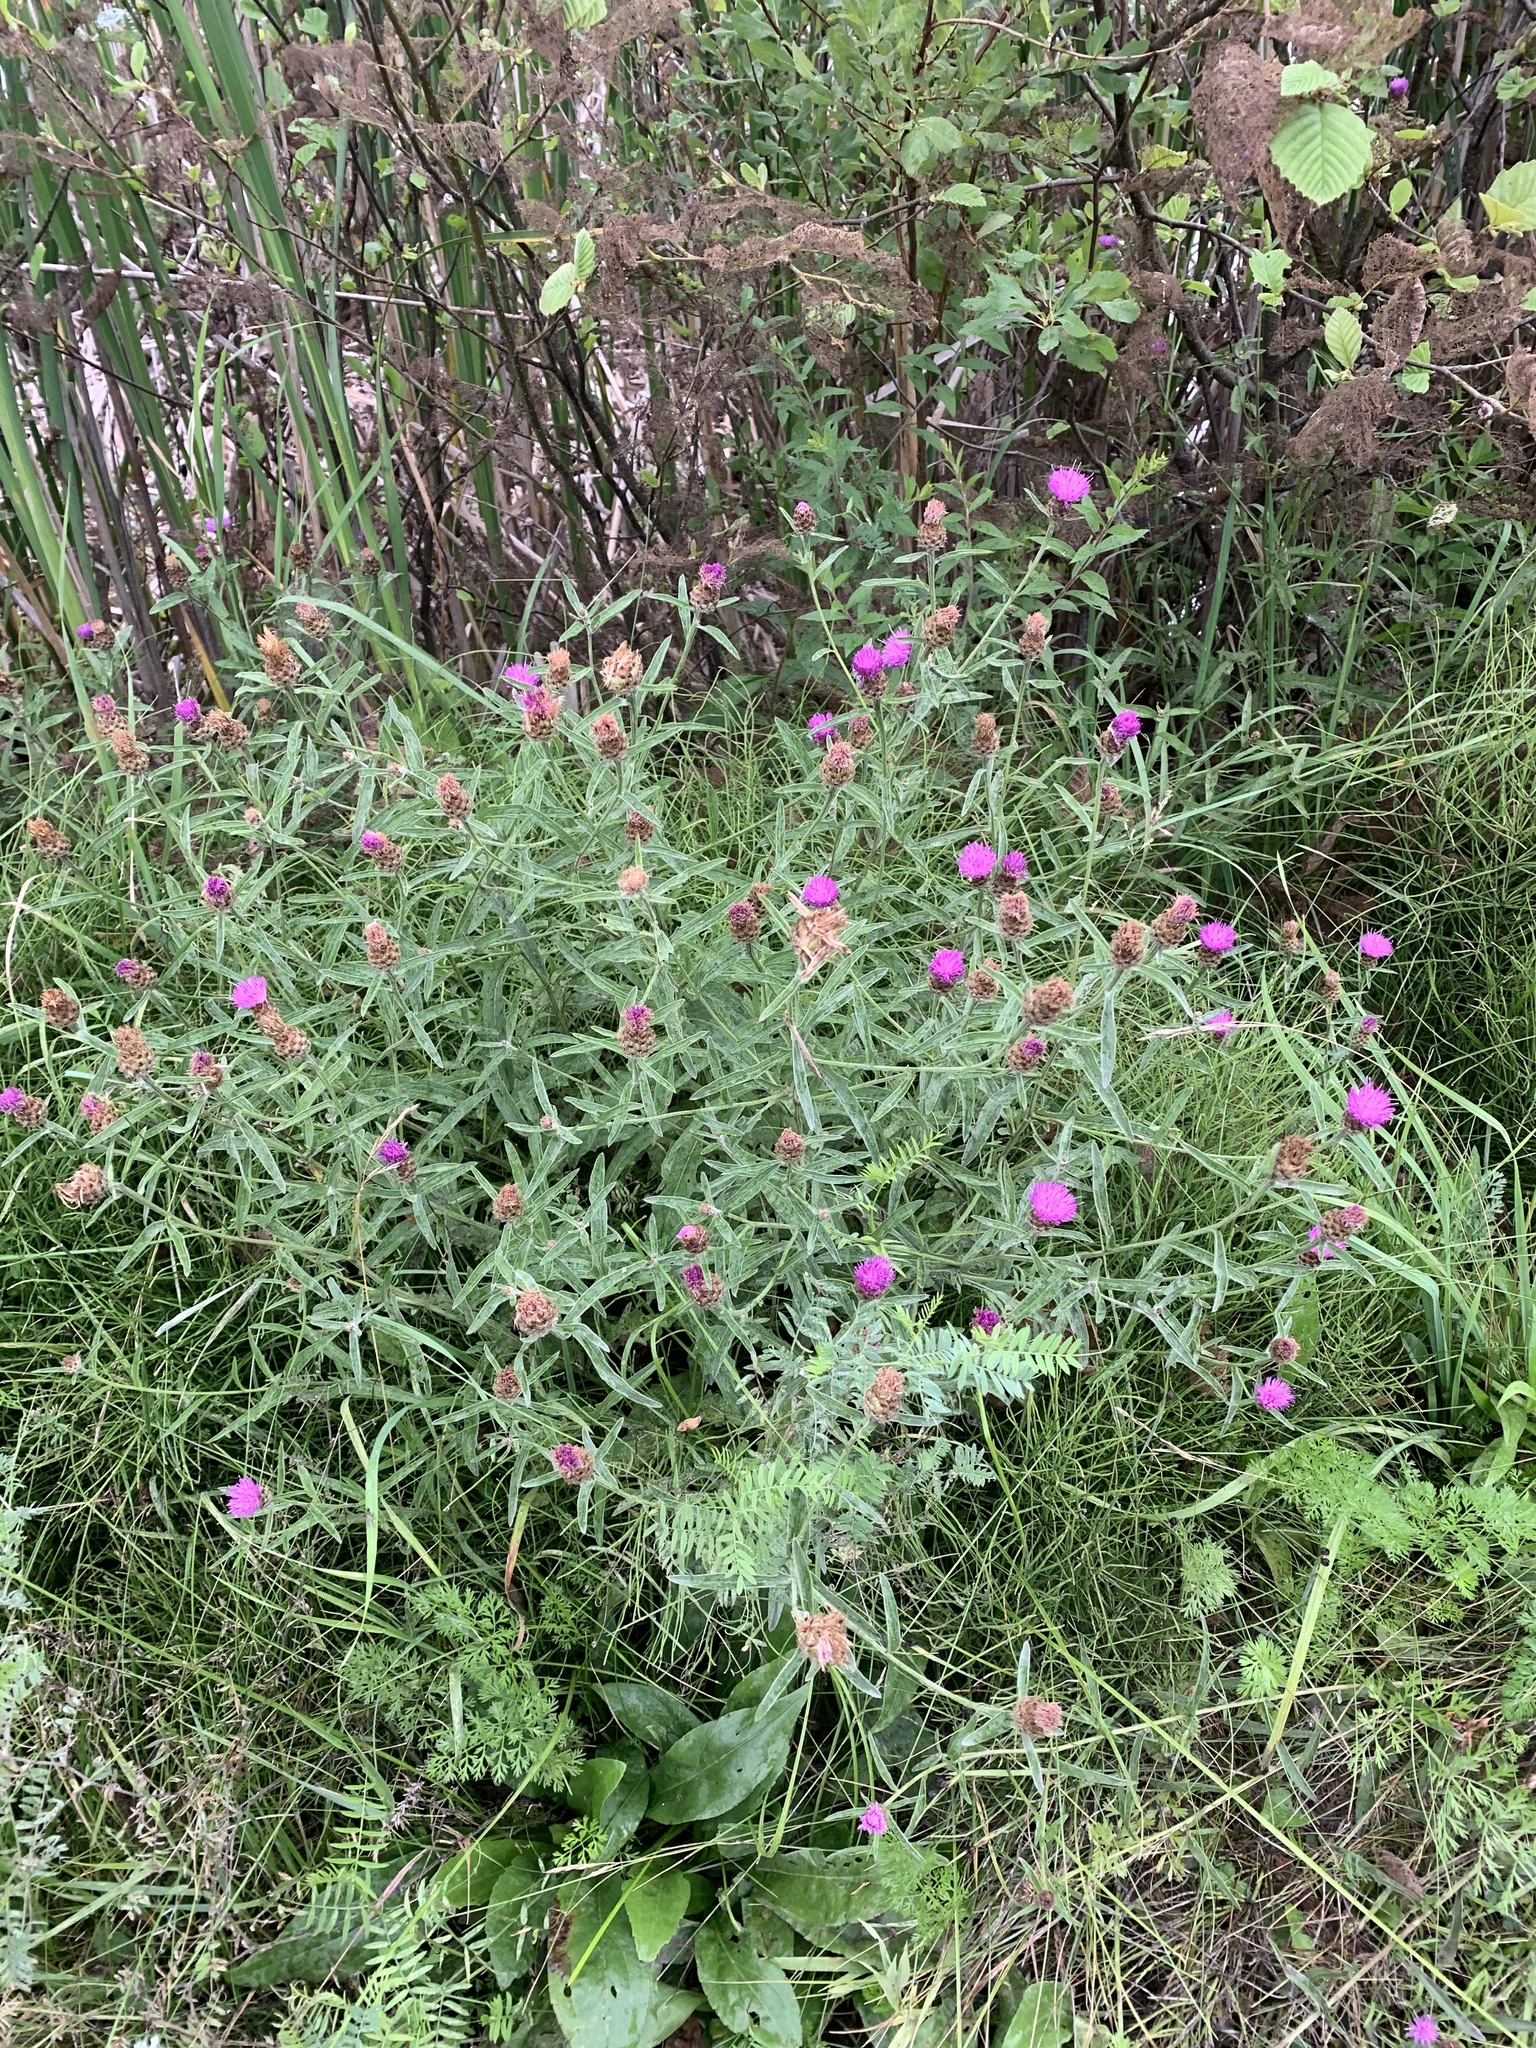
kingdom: Plantae
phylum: Tracheophyta
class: Magnoliopsida
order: Asterales
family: Asteraceae
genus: Centaurea
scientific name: Centaurea nigra
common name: Lesser knapweed
